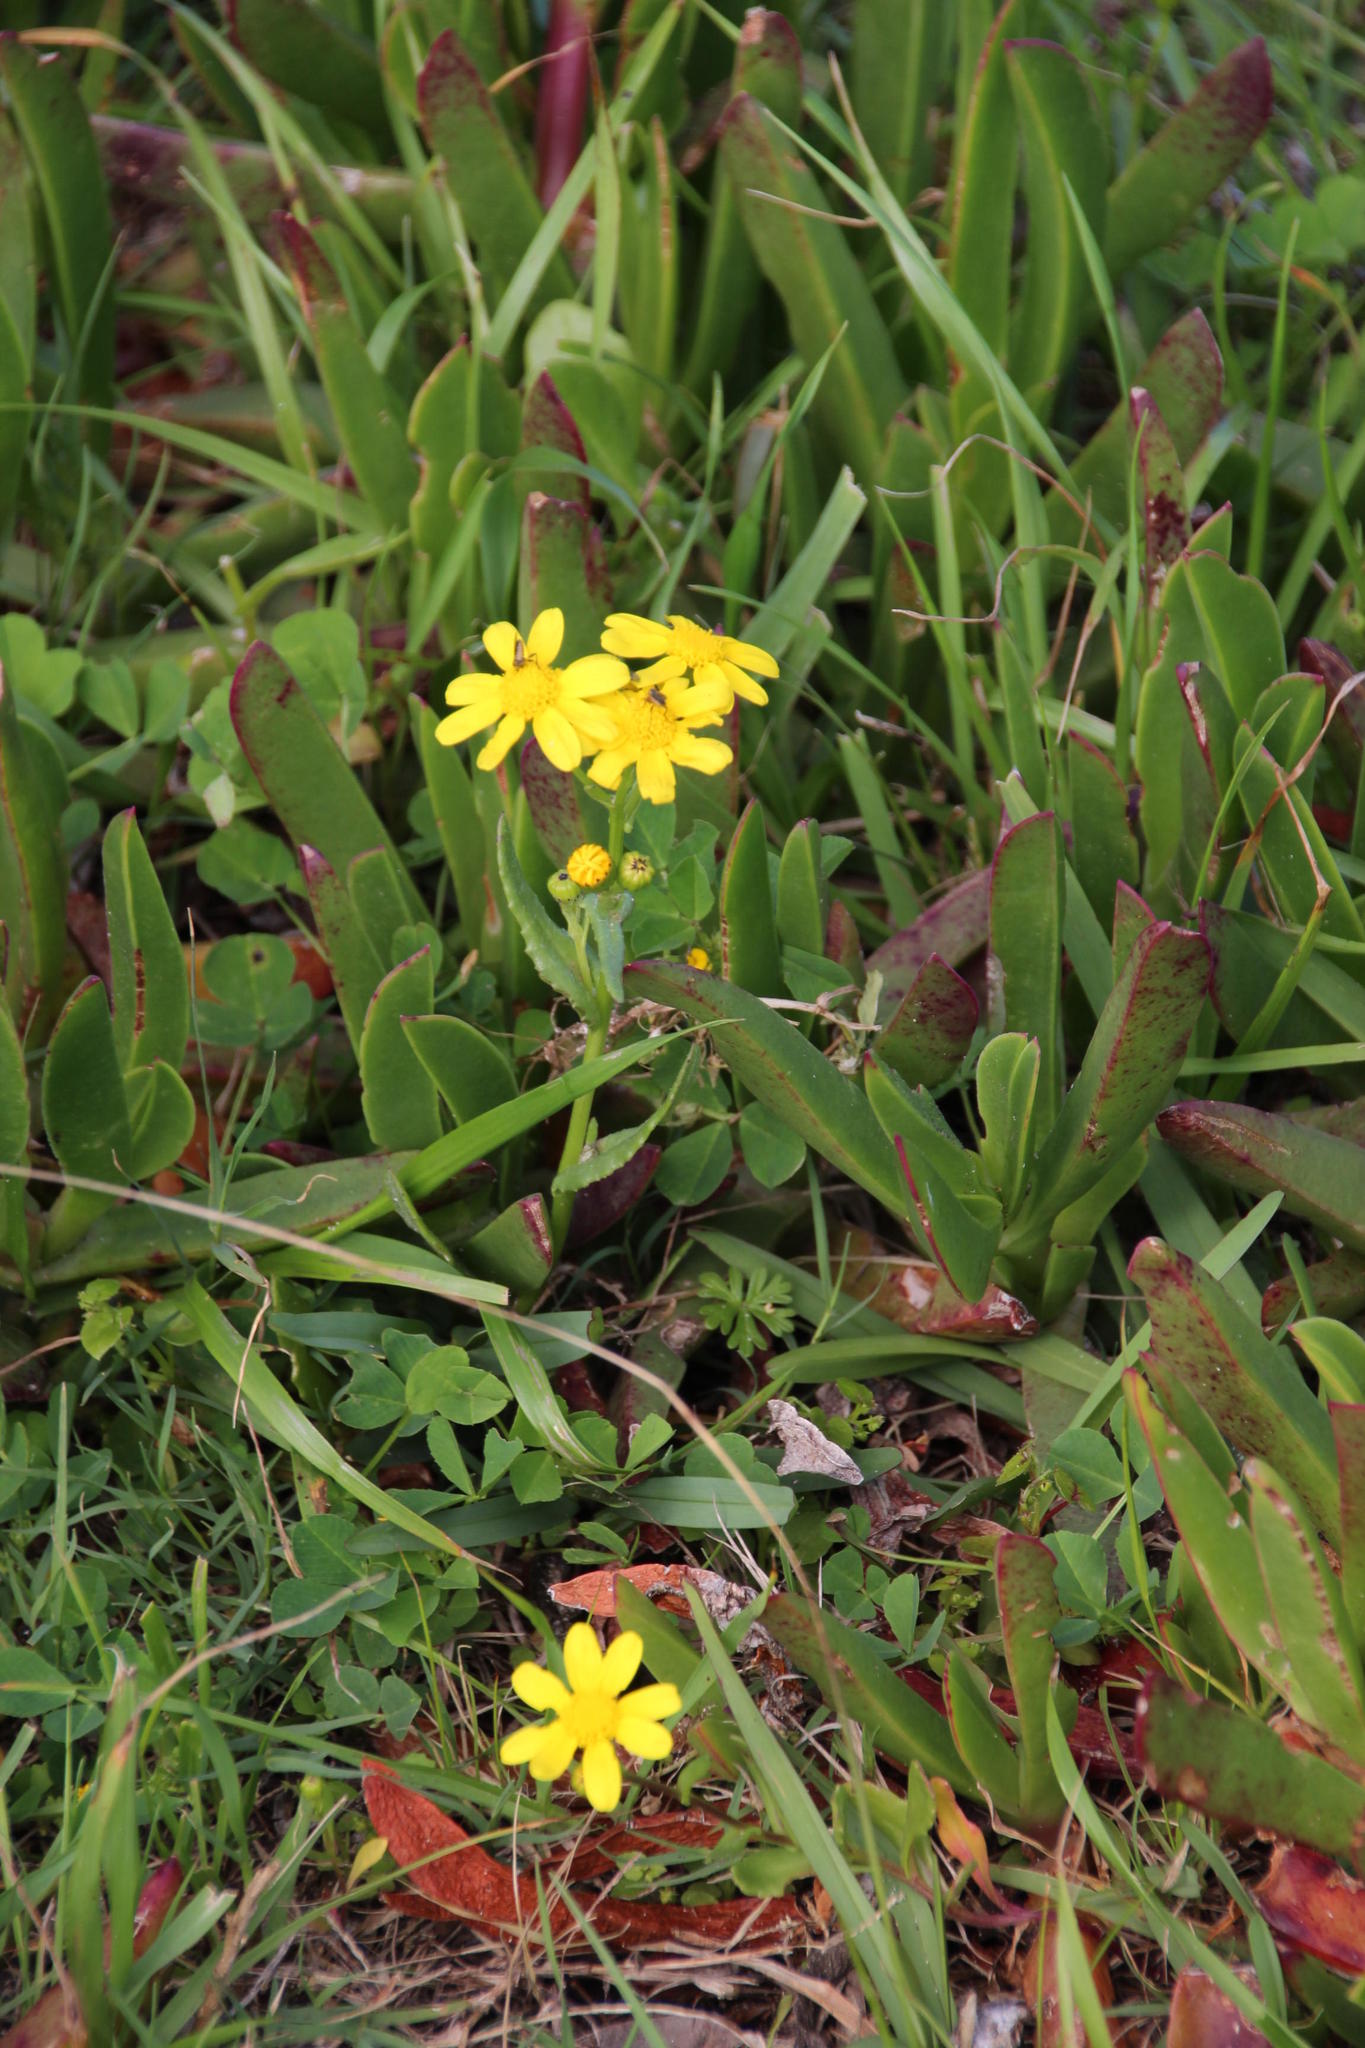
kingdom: Plantae
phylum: Tracheophyta
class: Magnoliopsida
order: Asterales
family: Asteraceae
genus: Senecio
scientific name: Senecio littoreus
